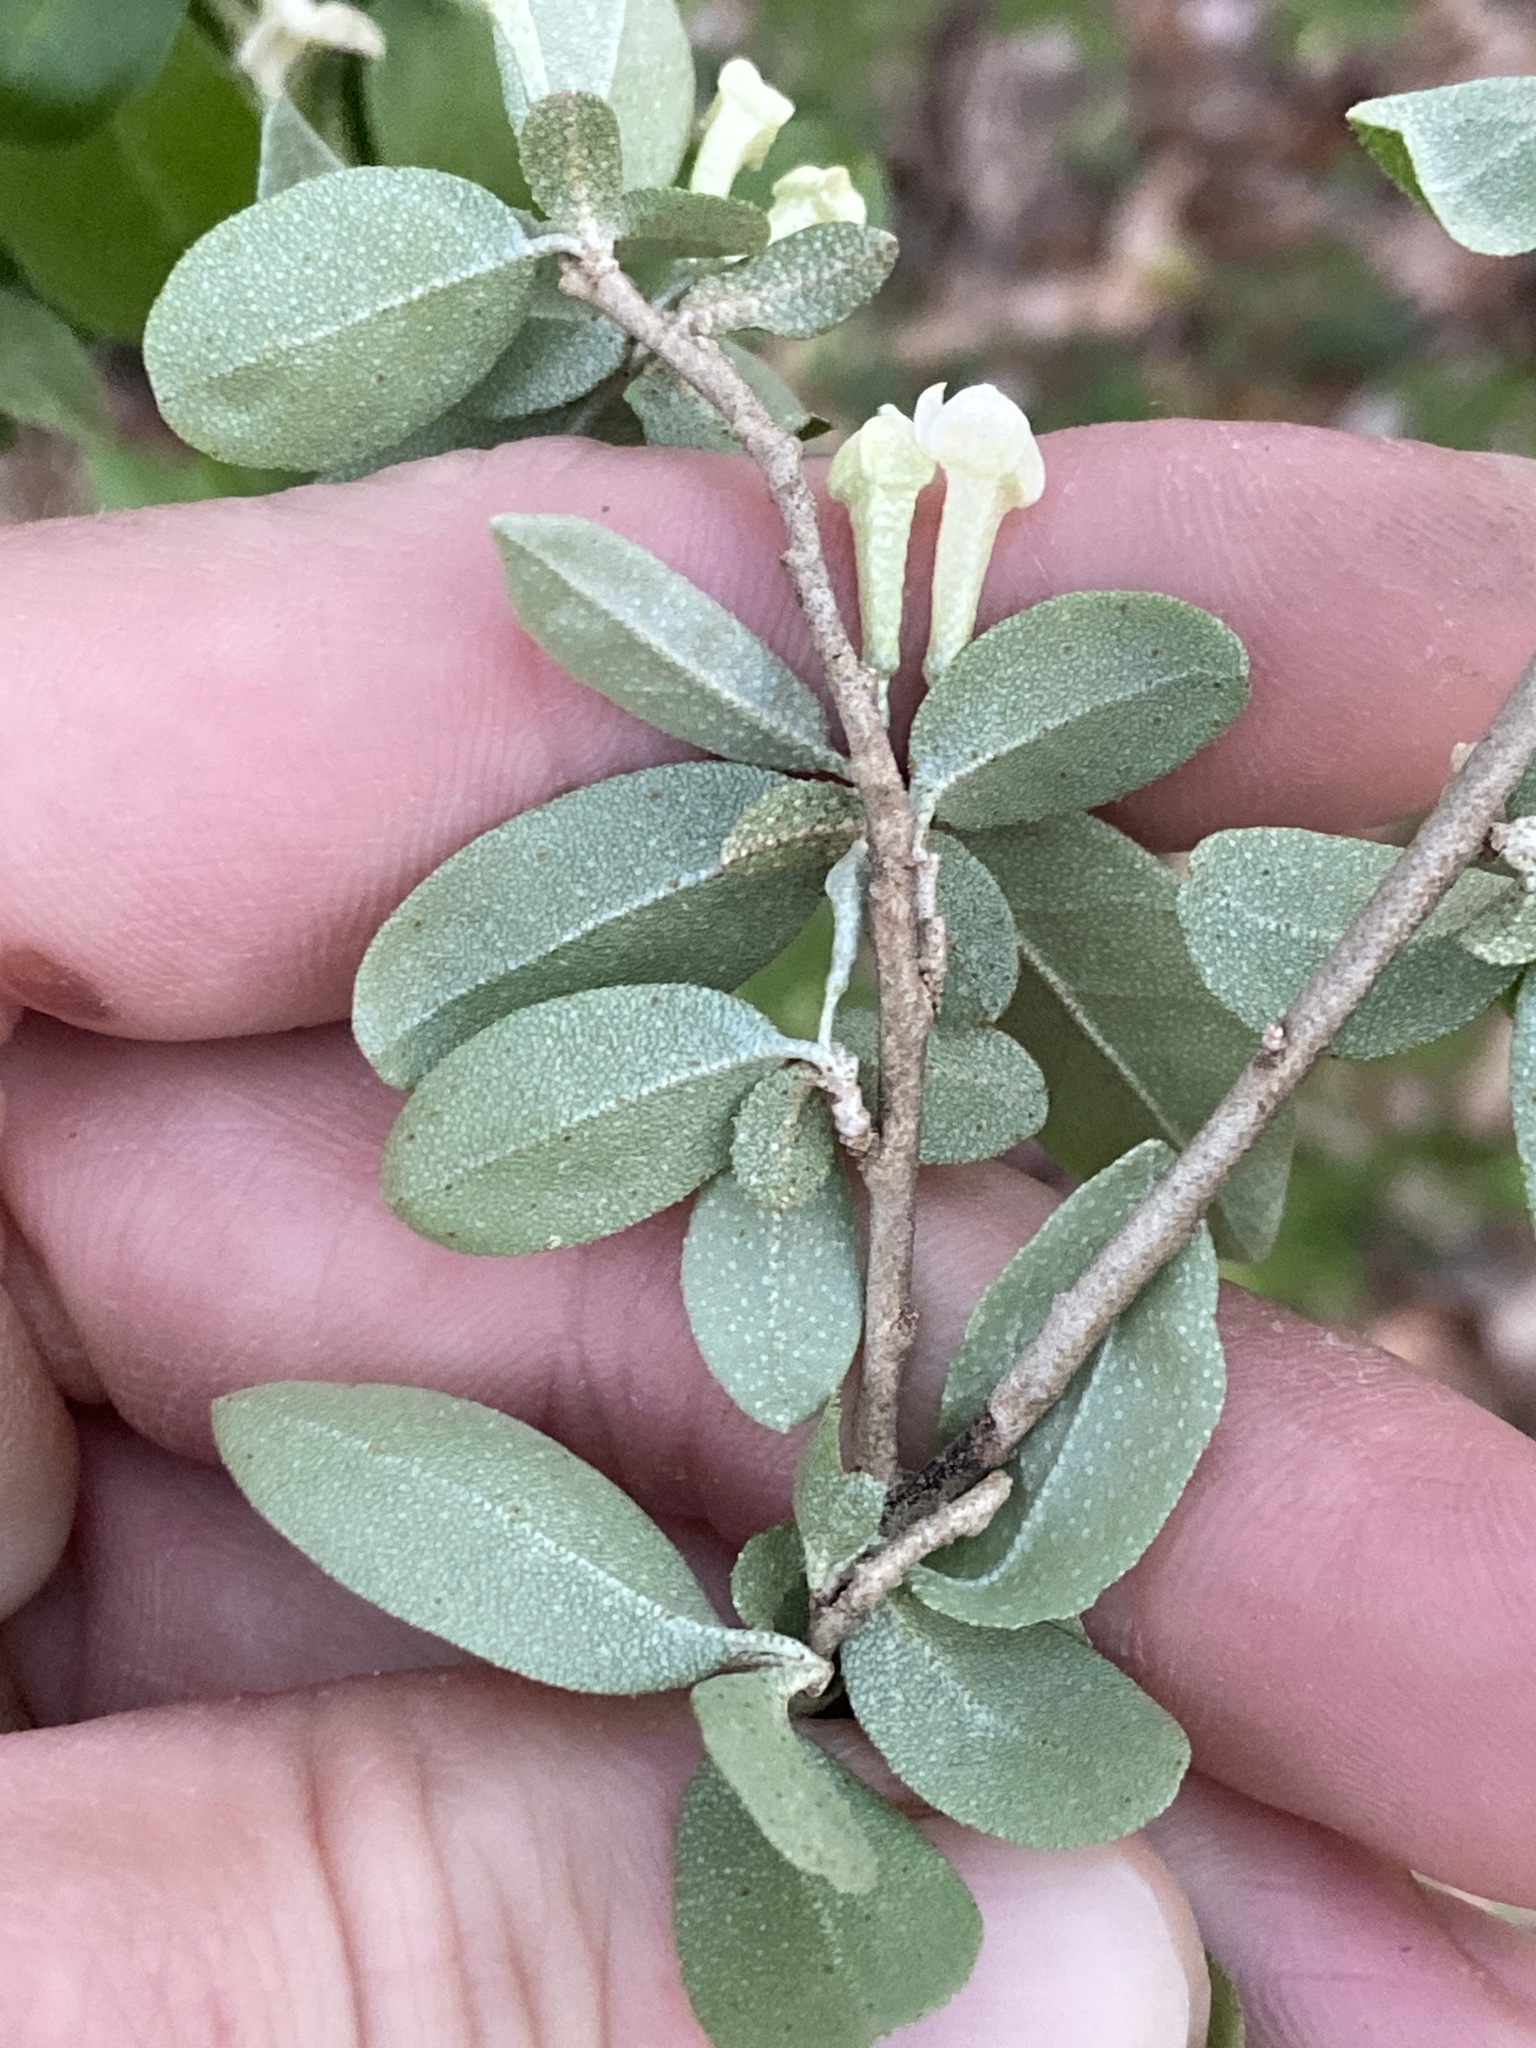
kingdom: Plantae
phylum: Tracheophyta
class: Magnoliopsida
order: Rosales
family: Elaeagnaceae
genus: Elaeagnus
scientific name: Elaeagnus umbellata
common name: Autumn olive
